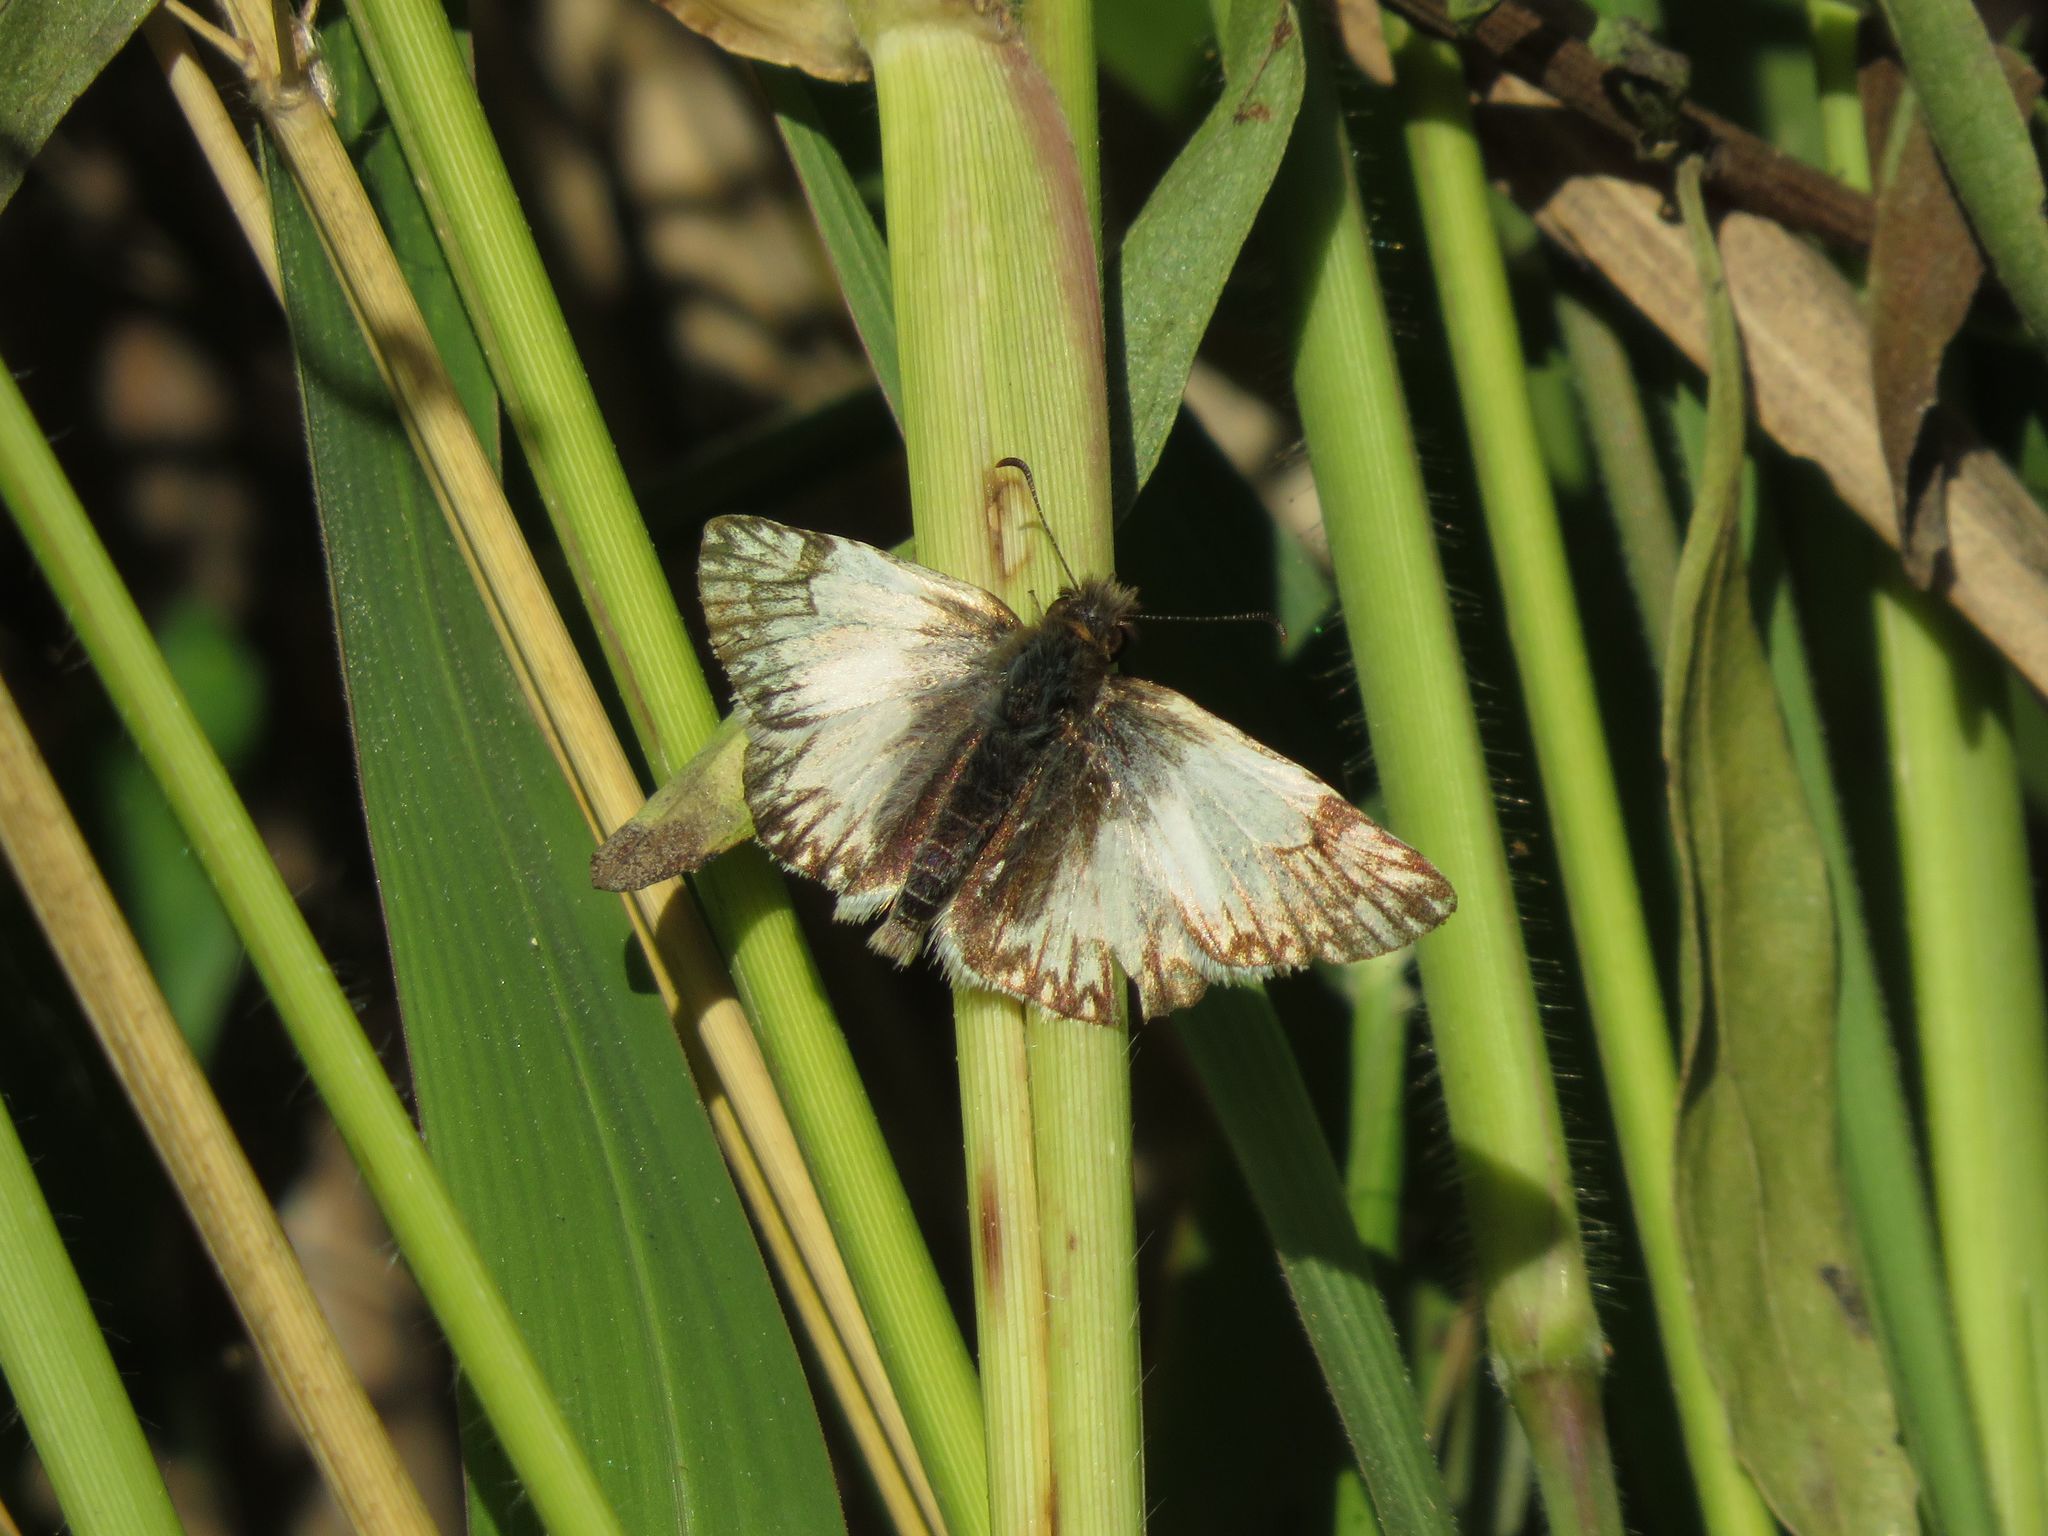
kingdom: Animalia
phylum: Arthropoda
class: Insecta
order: Lepidoptera
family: Hesperiidae
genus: Heliopetes
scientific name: Heliopetes omrina
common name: Stained white-skipper
